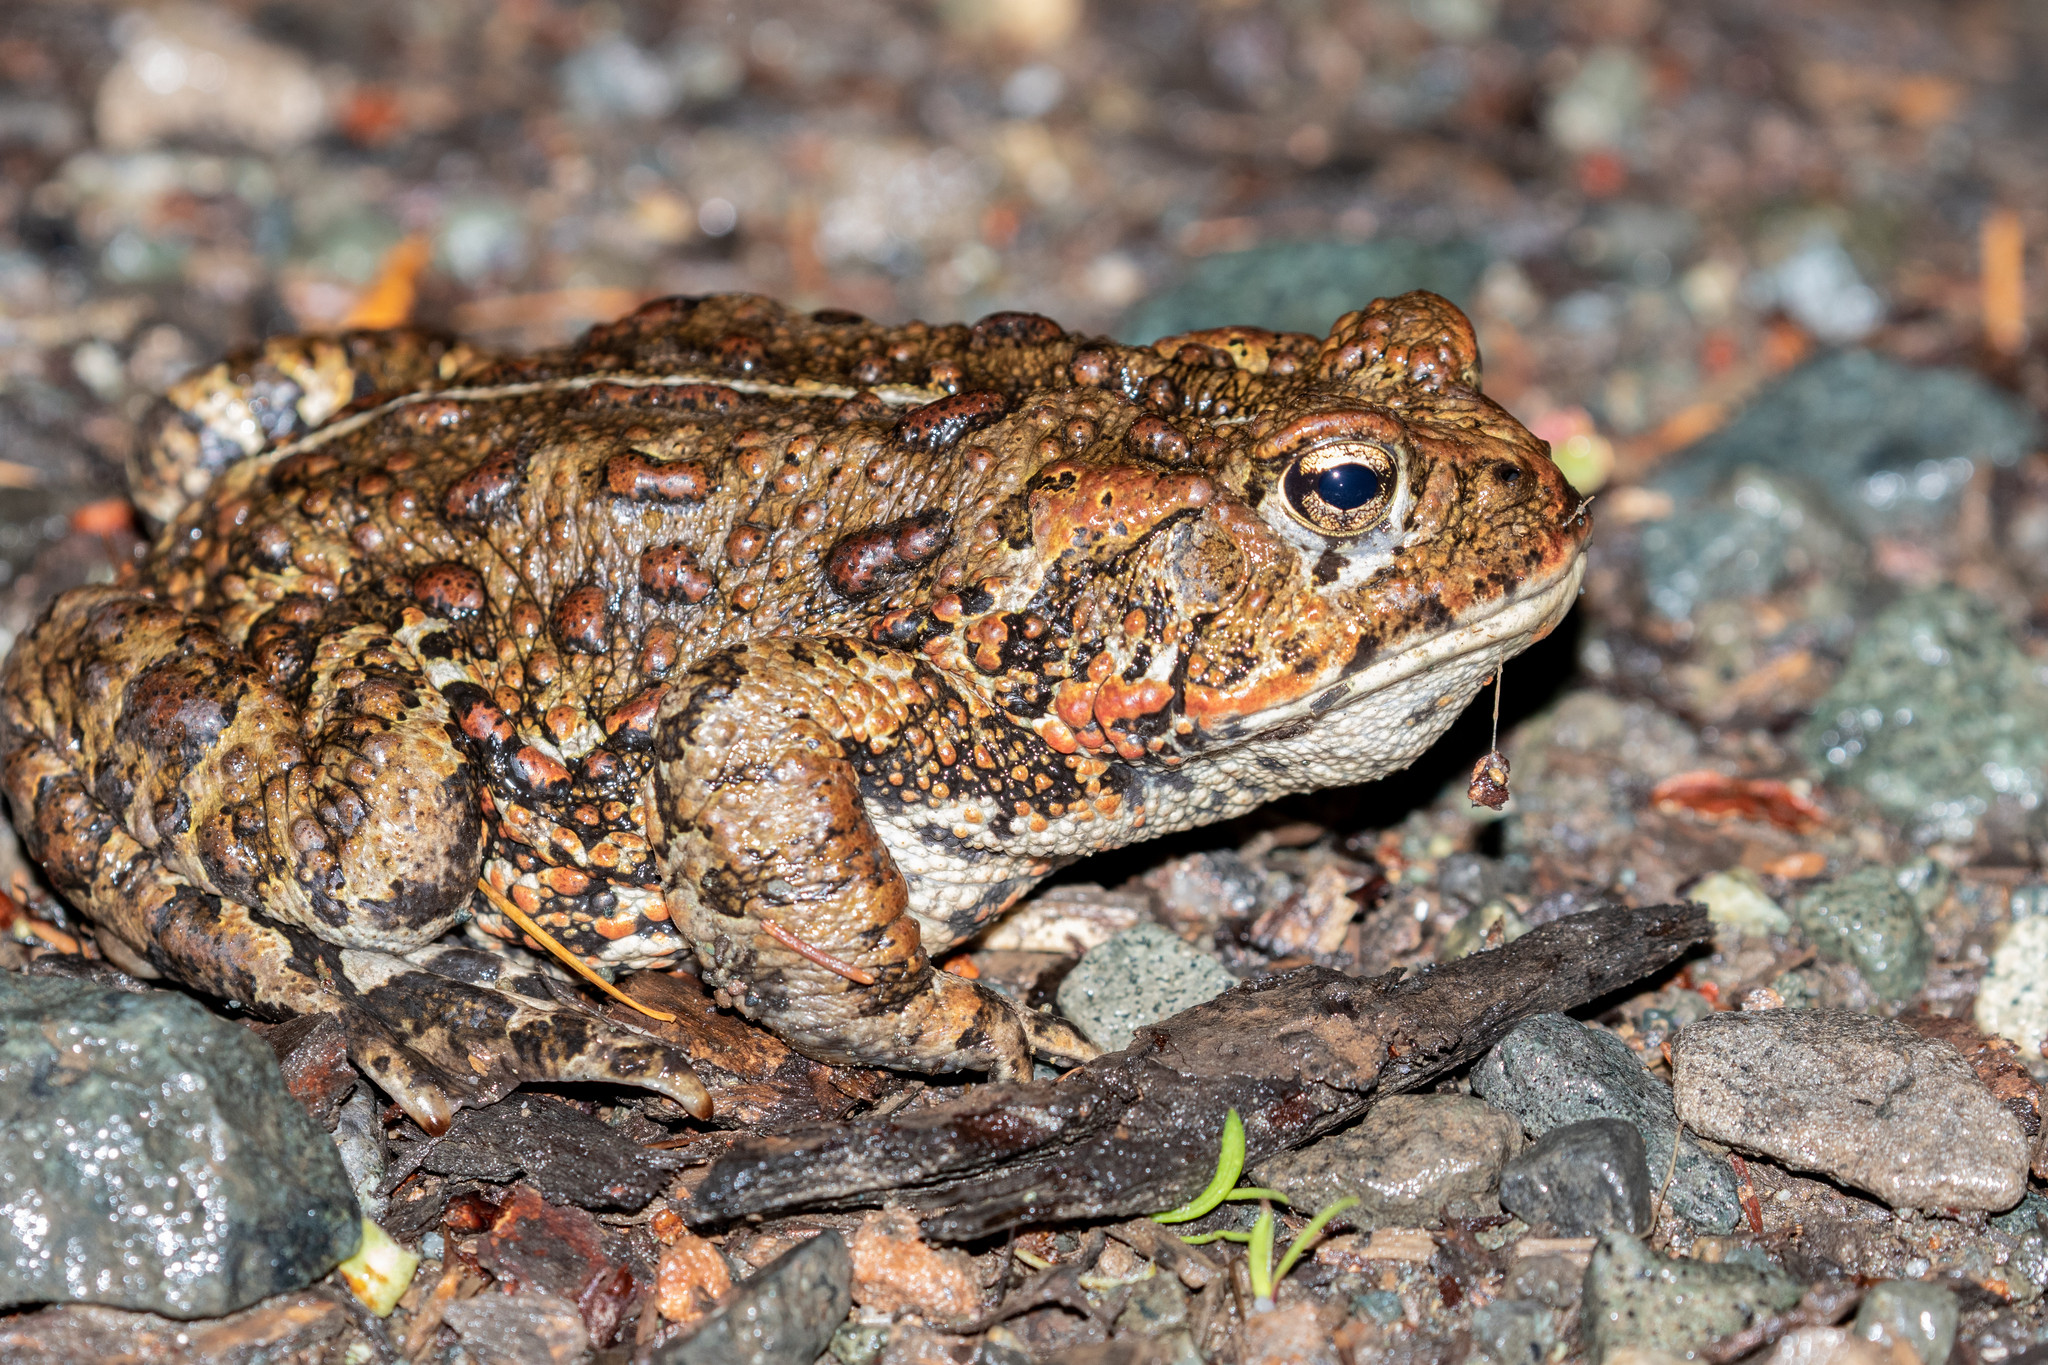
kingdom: Animalia
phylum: Chordata
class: Amphibia
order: Anura
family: Bufonidae
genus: Anaxyrus
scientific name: Anaxyrus boreas
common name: Western toad
